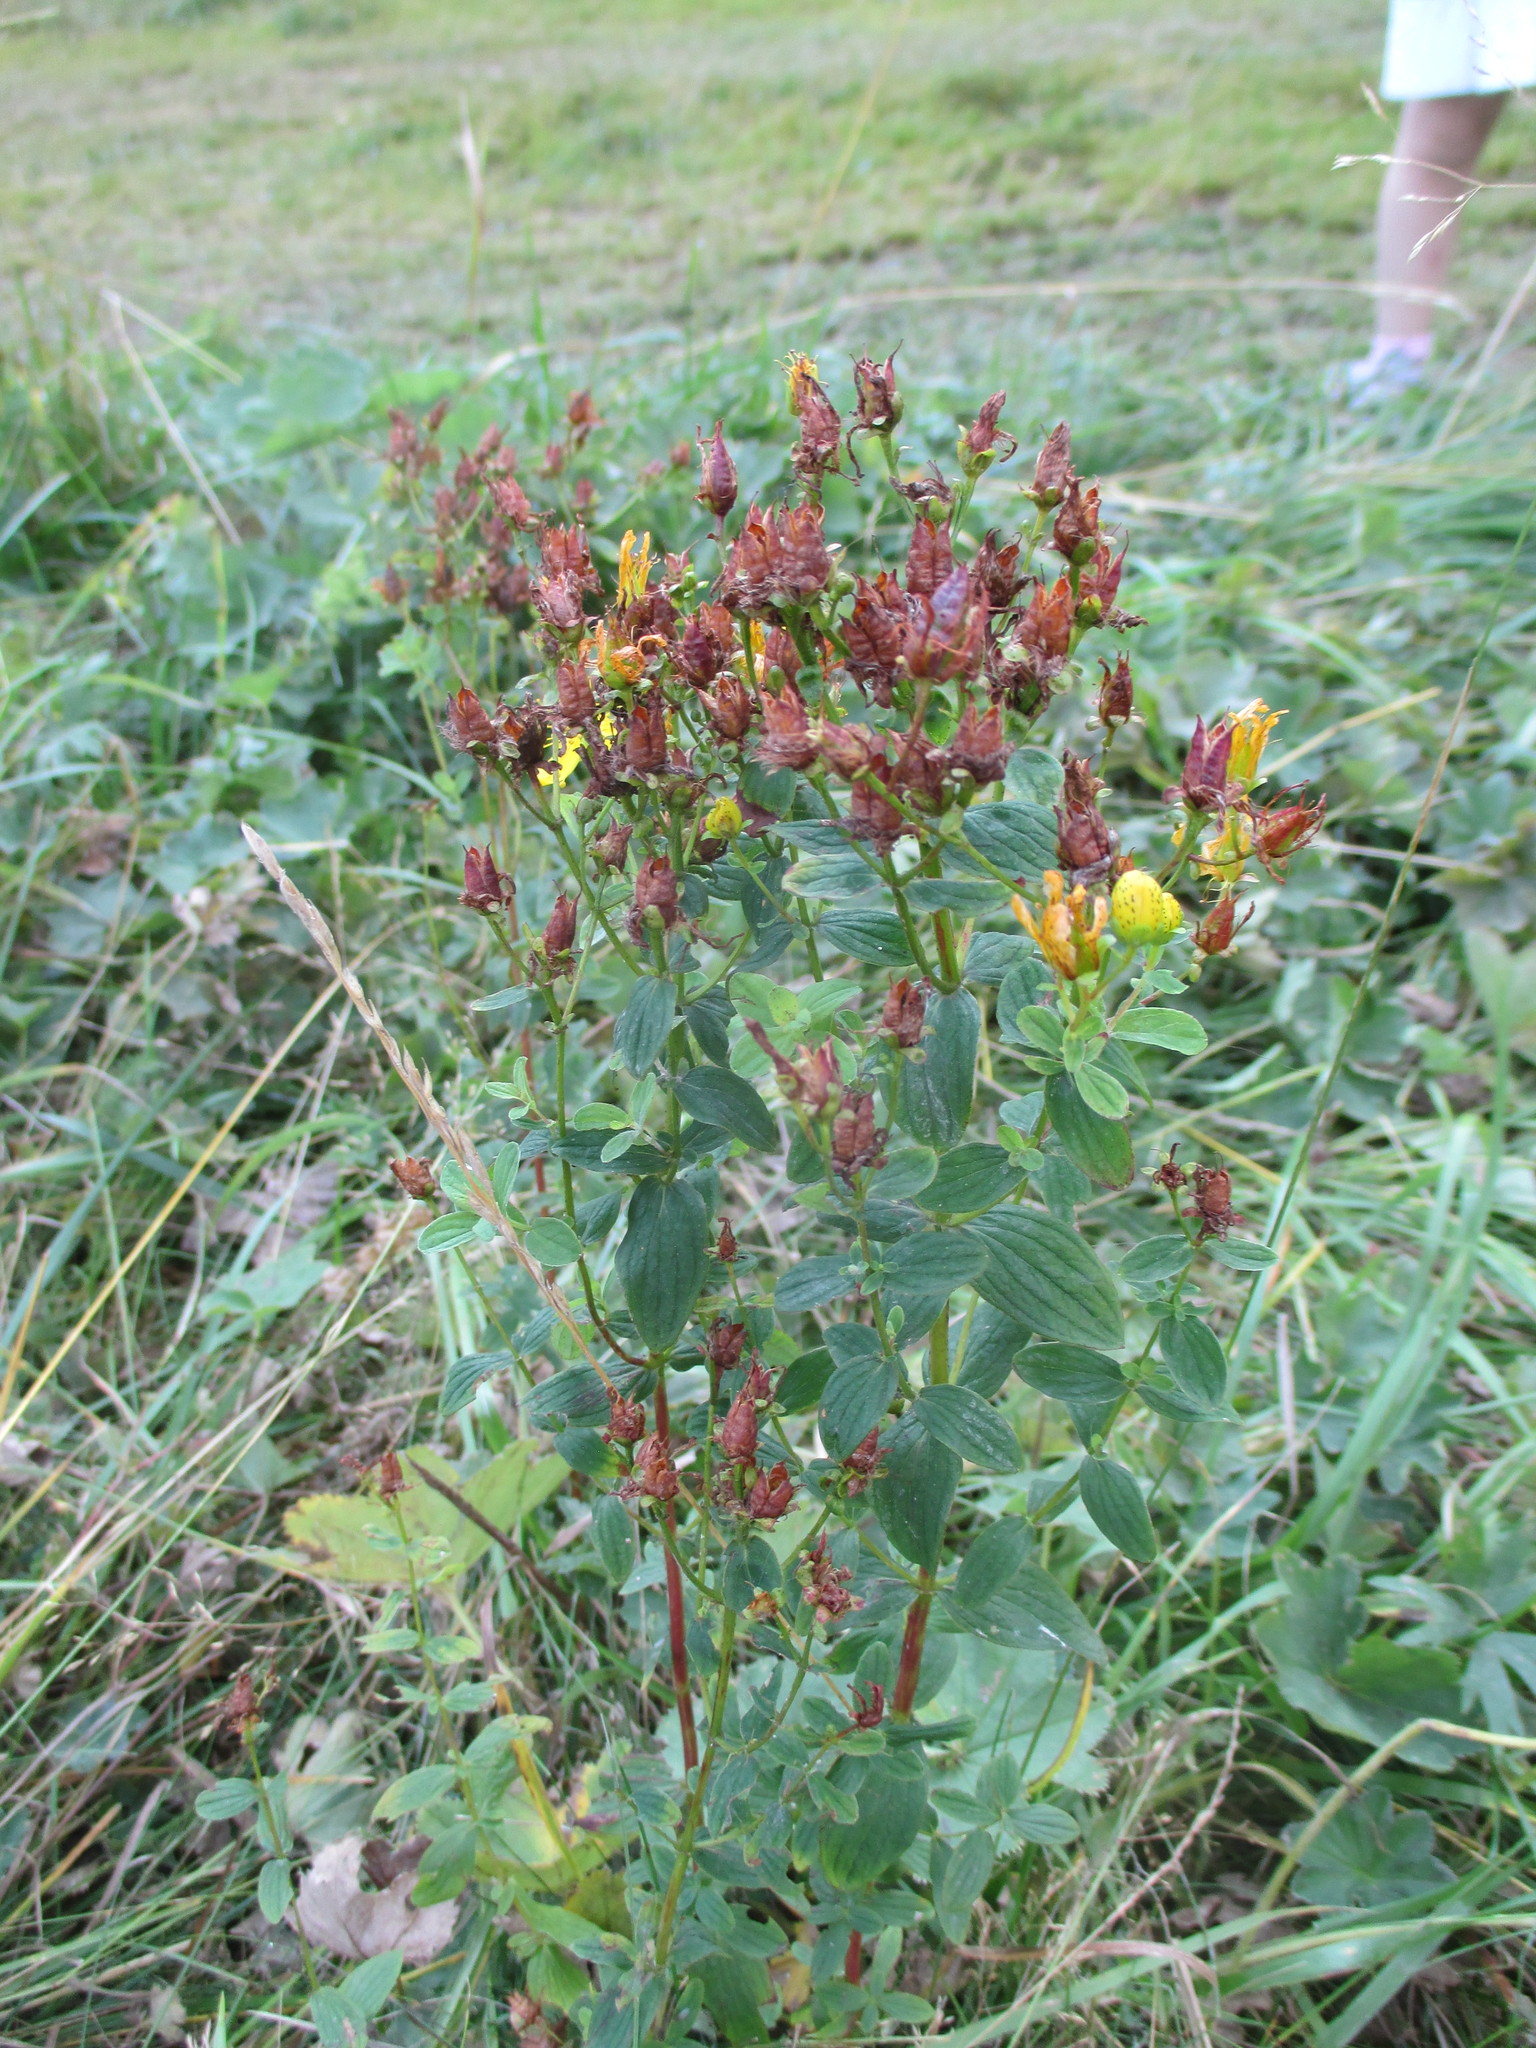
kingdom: Plantae
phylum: Tracheophyta
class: Magnoliopsida
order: Malpighiales
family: Hypericaceae
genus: Hypericum
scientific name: Hypericum maculatum
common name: Imperforate st. john's-wort
